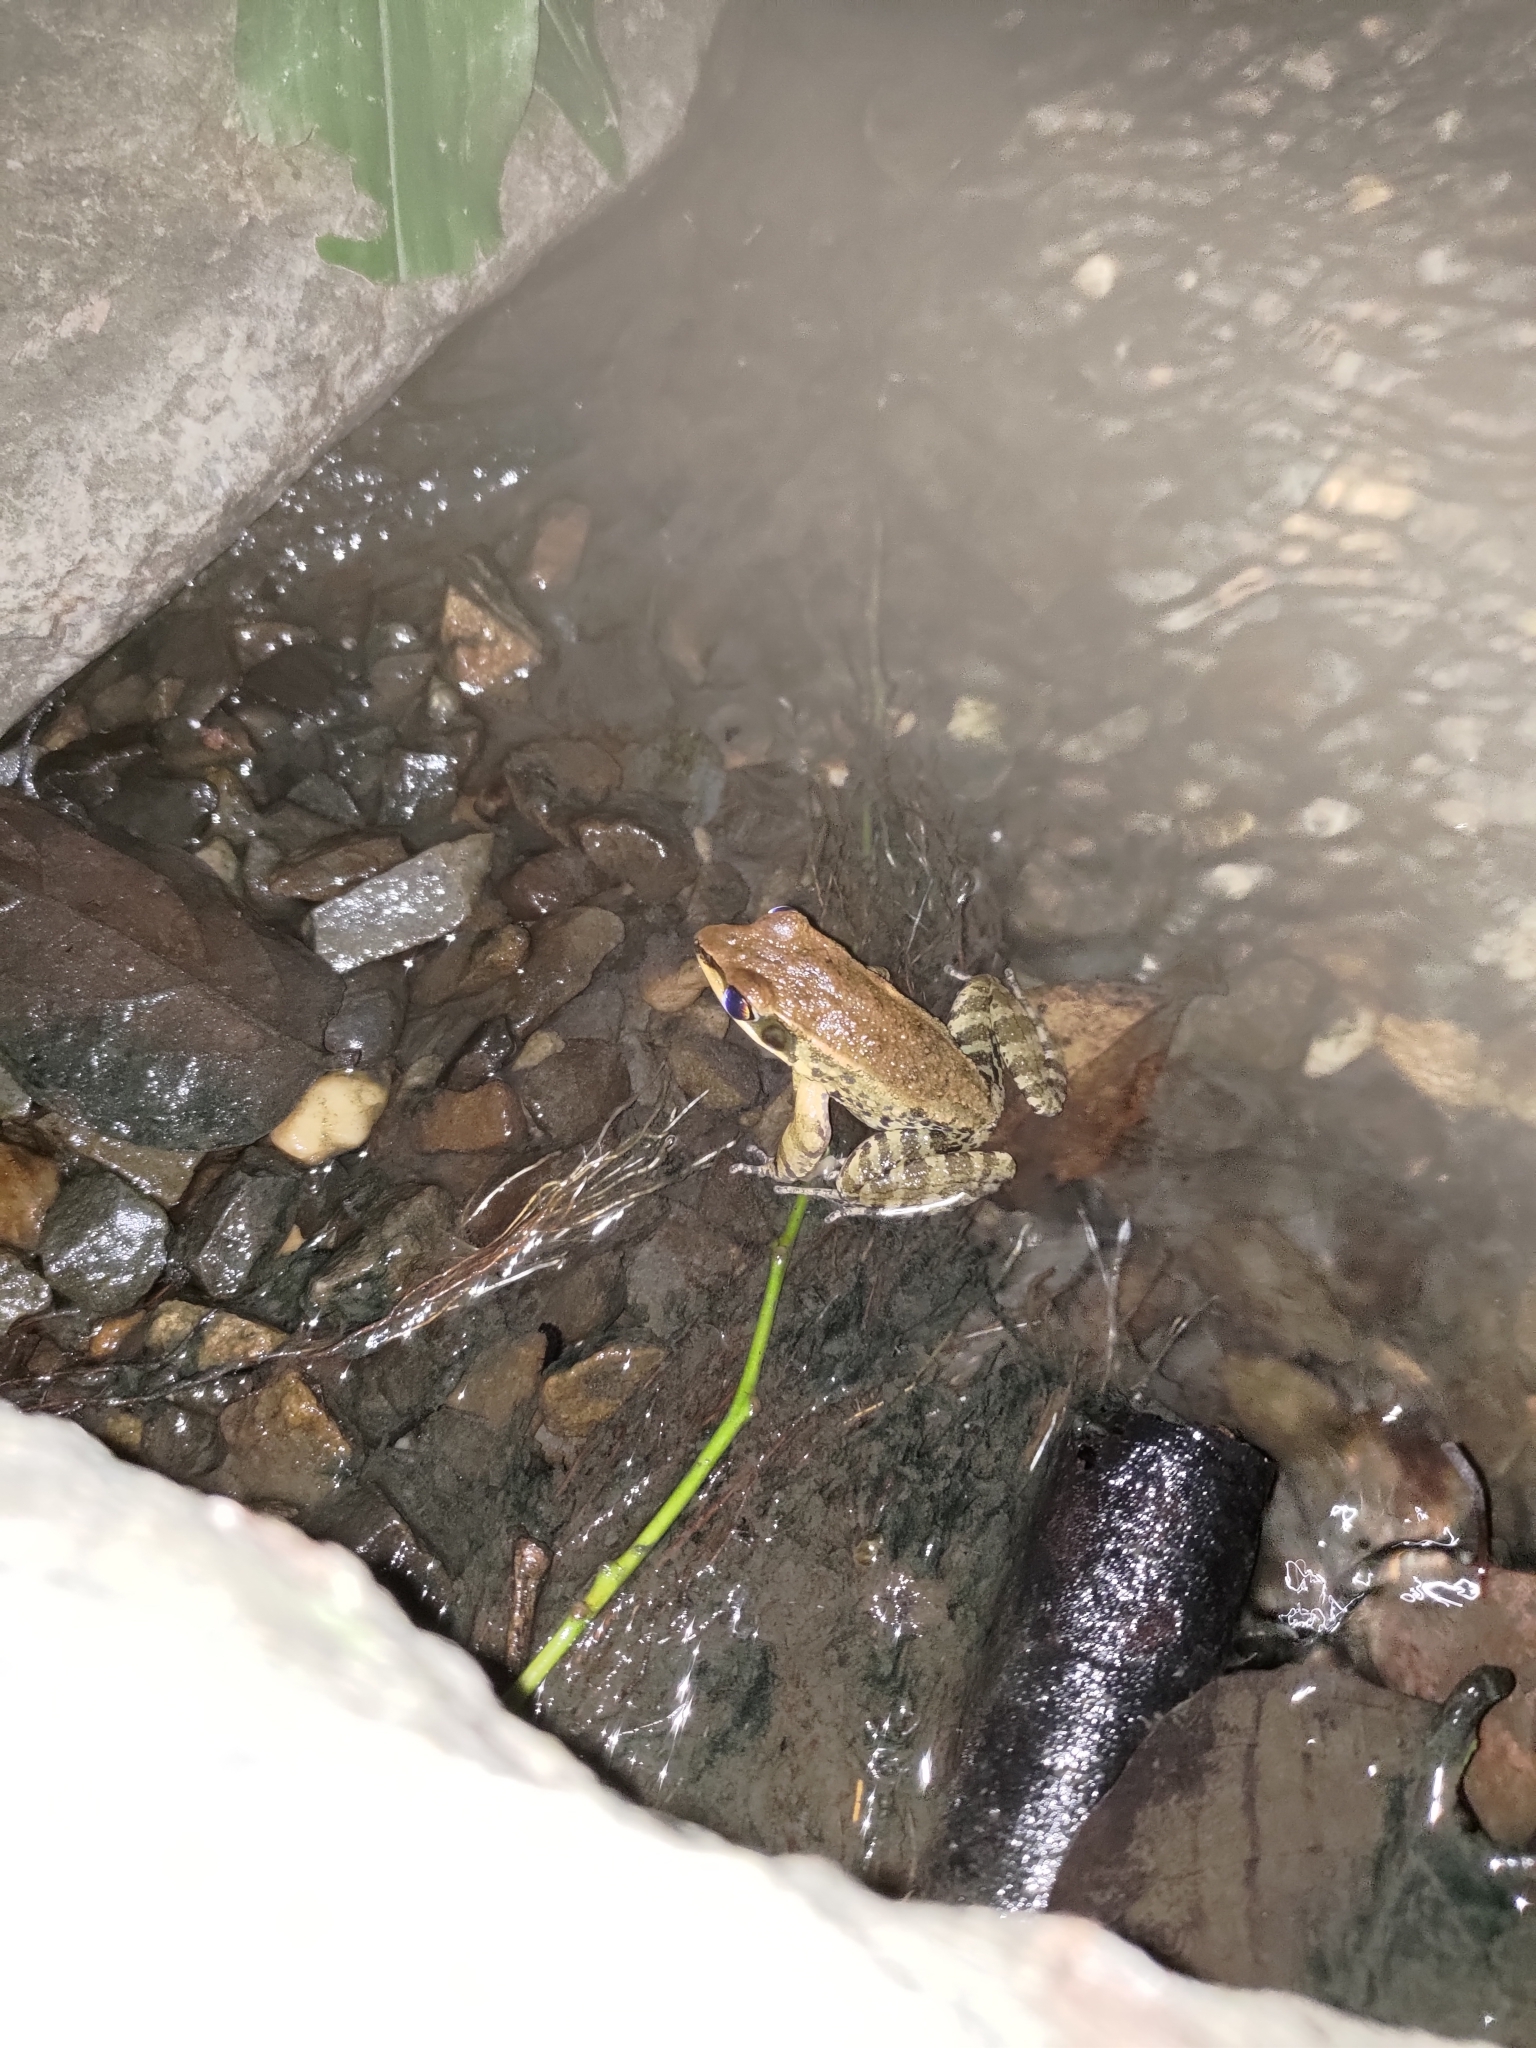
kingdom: Animalia
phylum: Chordata
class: Amphibia
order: Anura
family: Ranidae
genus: Hylarana
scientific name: Hylarana latouchii
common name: Broad-folded frog
